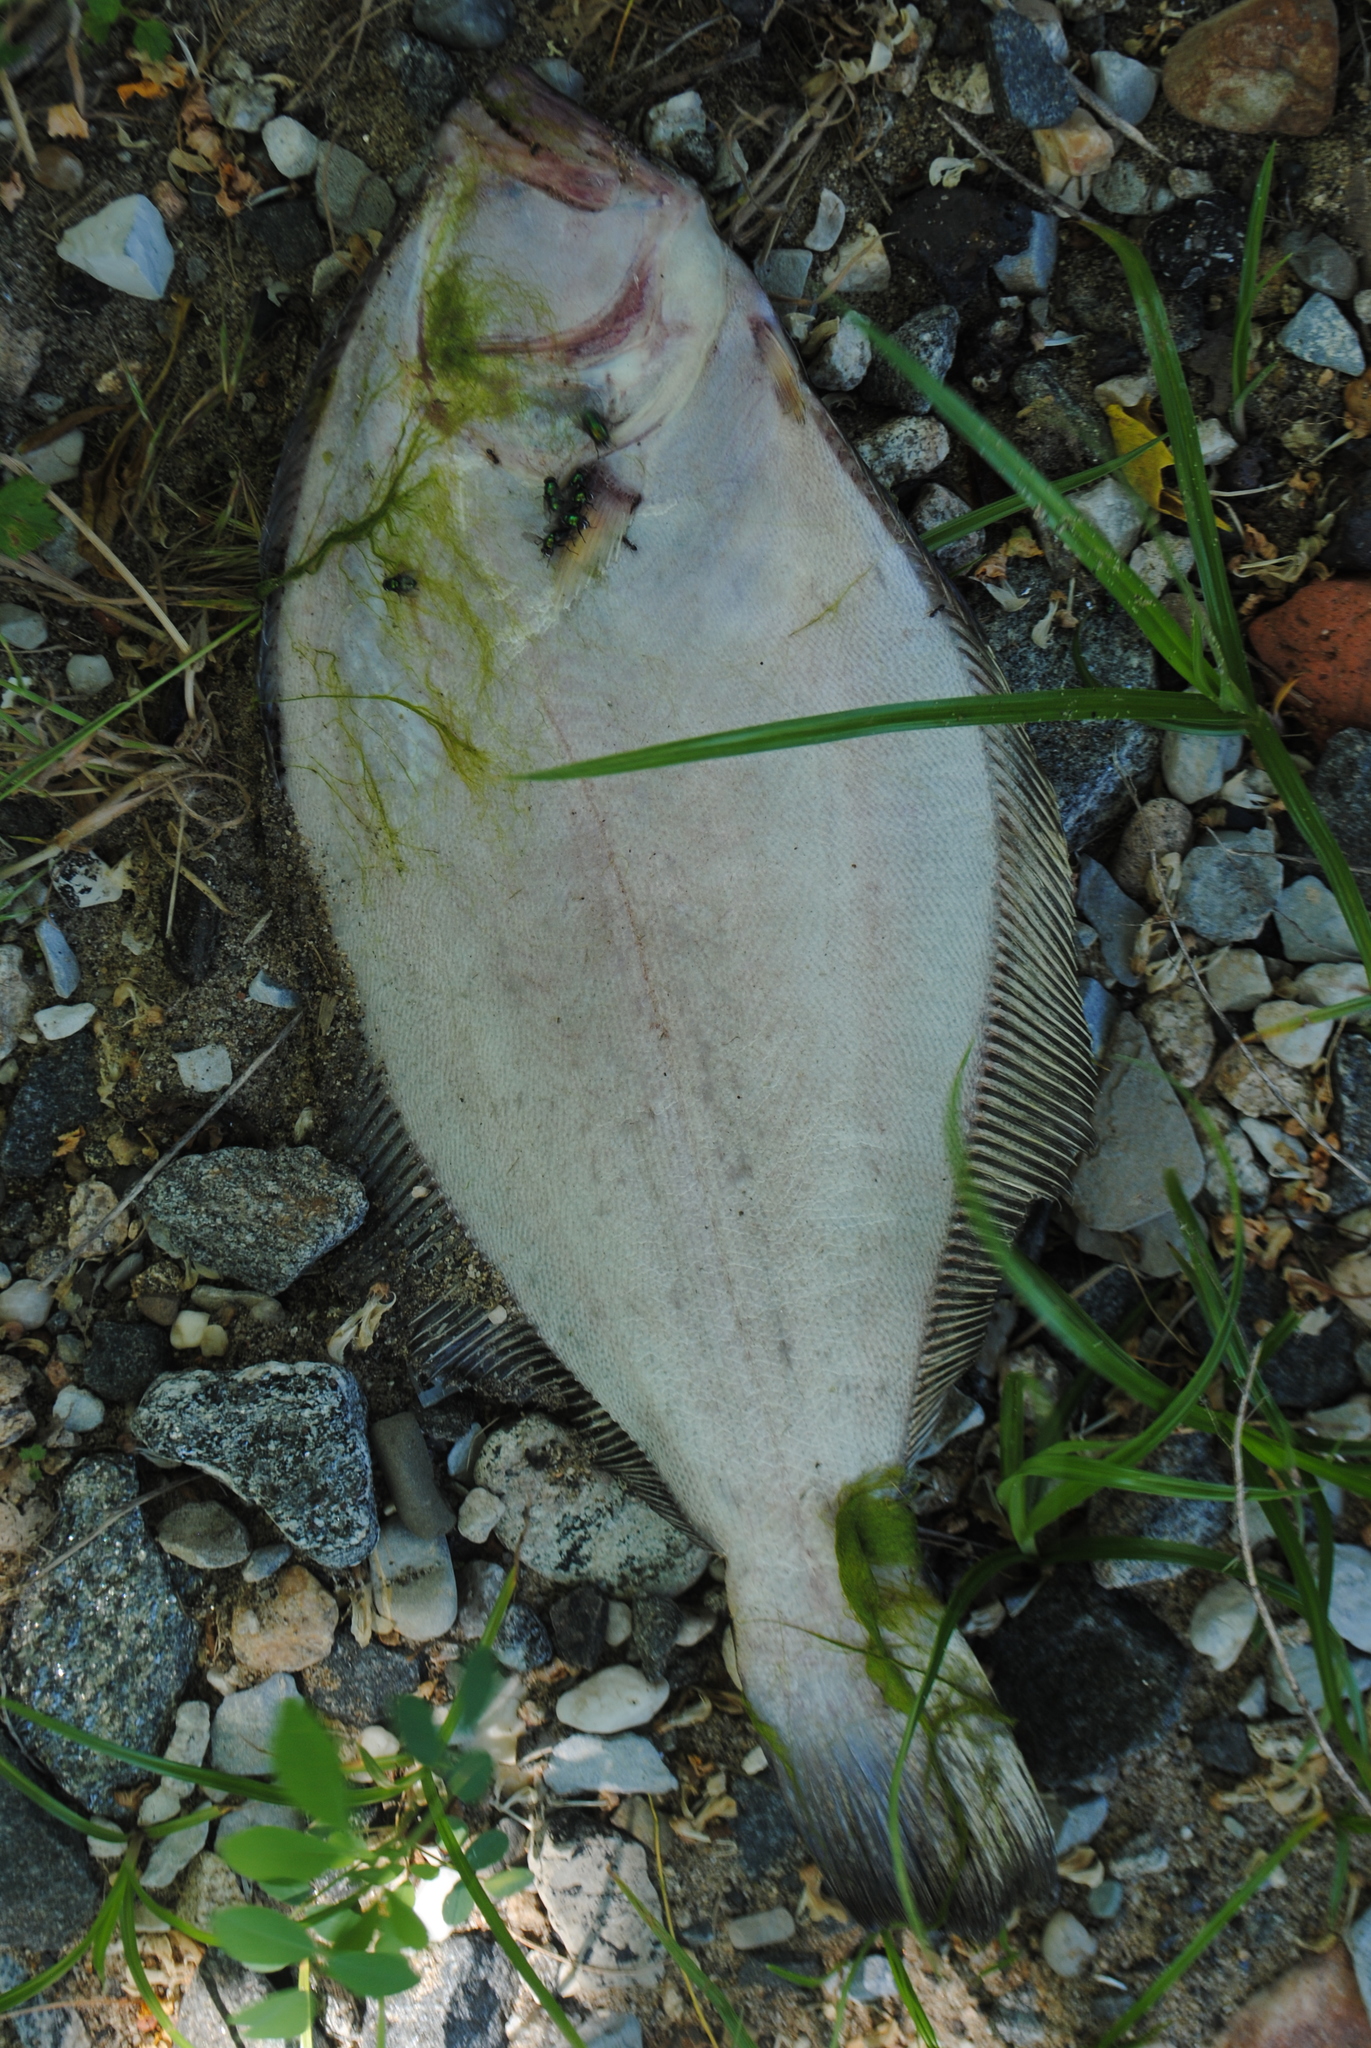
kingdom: Animalia
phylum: Chordata
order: Pleuronectiformes
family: Paralichthyidae
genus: Paralichthys
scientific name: Paralichthys dentatus
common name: Summer flounder
